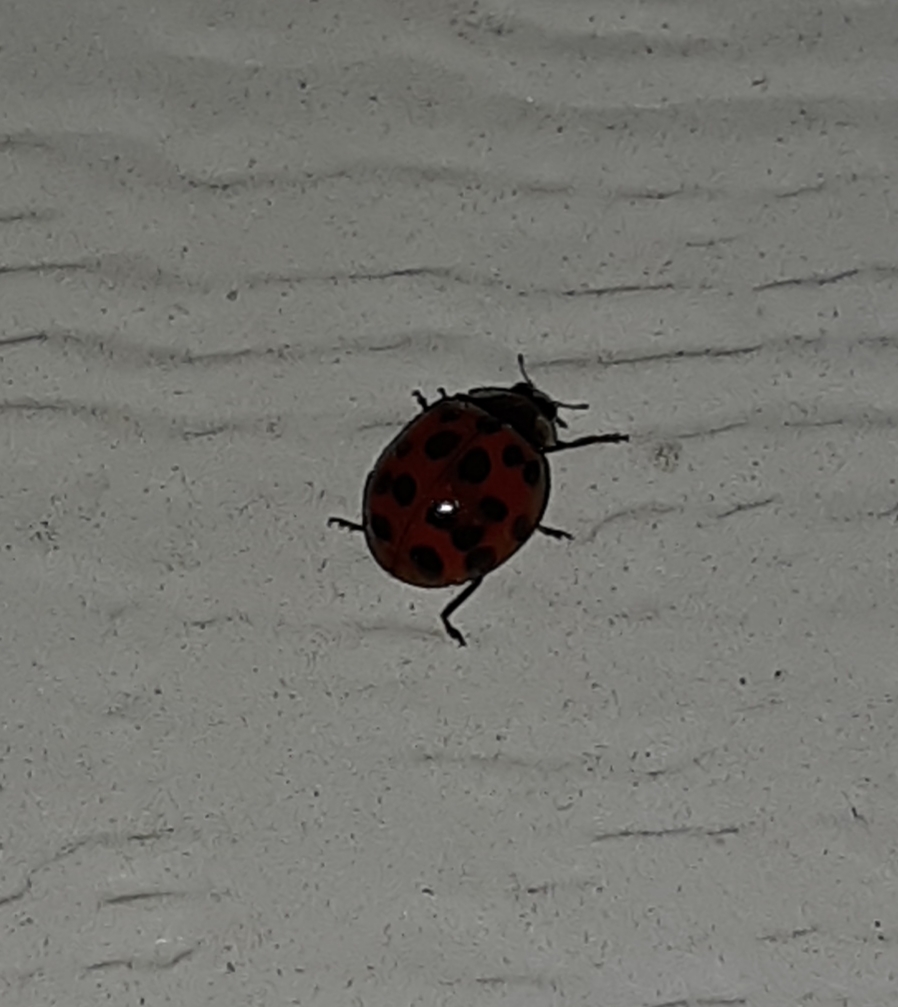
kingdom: Animalia
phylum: Arthropoda
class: Insecta
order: Coleoptera
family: Coccinellidae
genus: Harmonia
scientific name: Harmonia axyridis
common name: Harlequin ladybird
